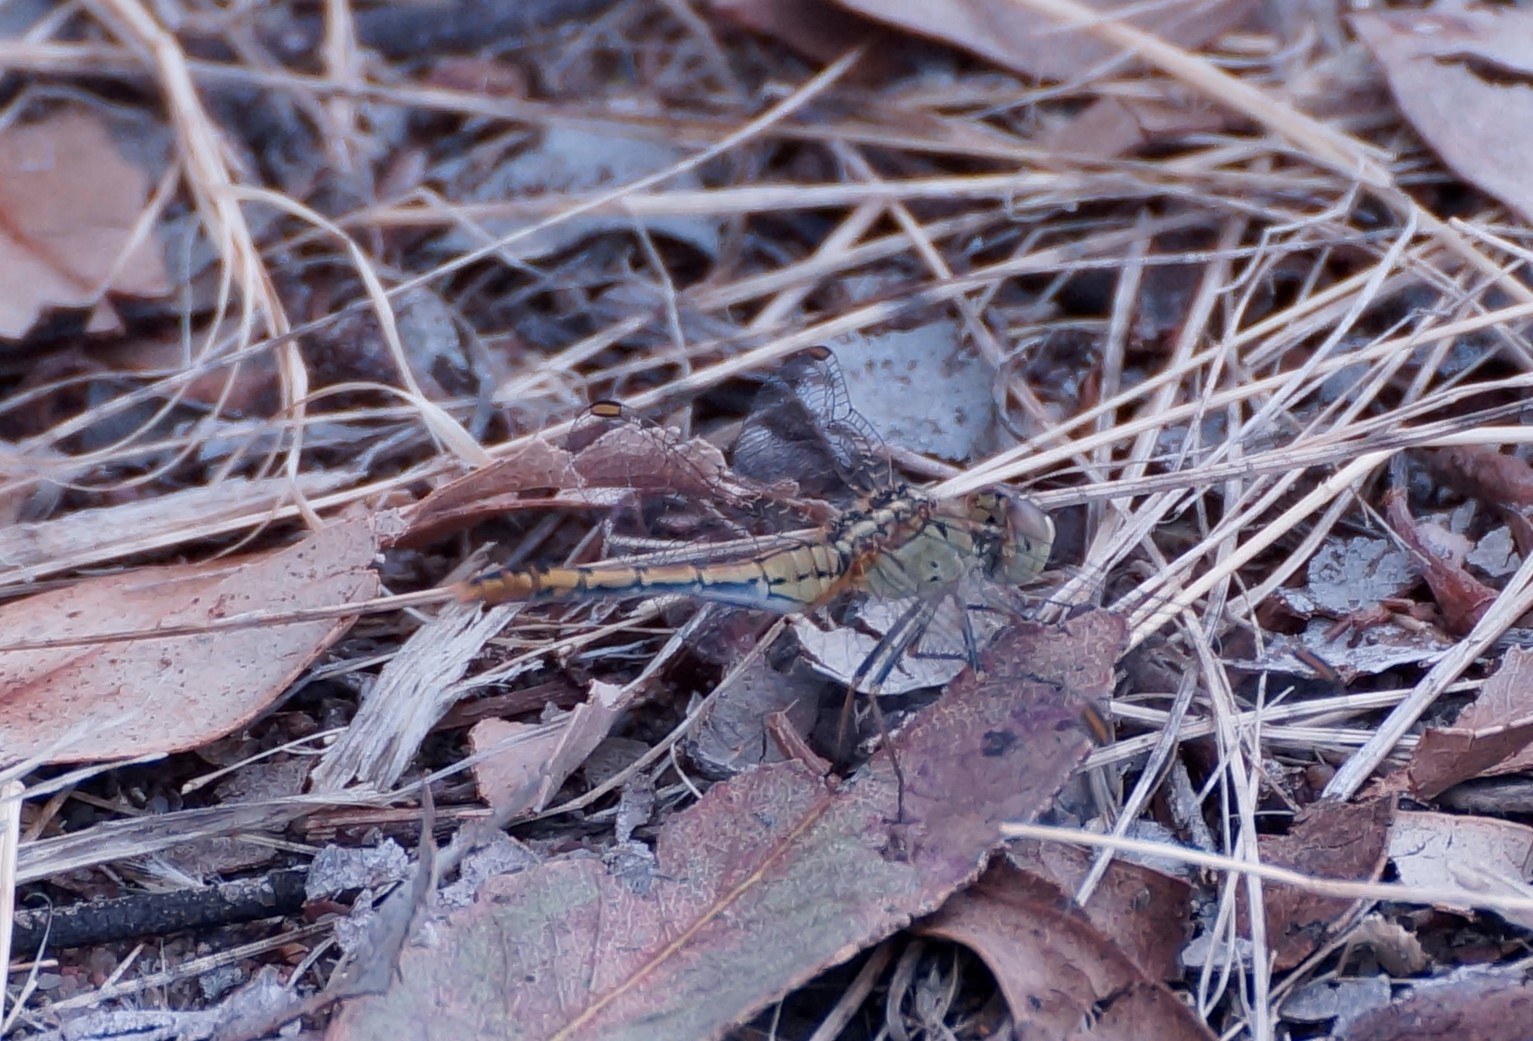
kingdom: Animalia
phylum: Arthropoda
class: Insecta
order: Odonata
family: Libellulidae
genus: Diplacodes
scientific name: Diplacodes bipunctata
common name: Red percher dragonfly
